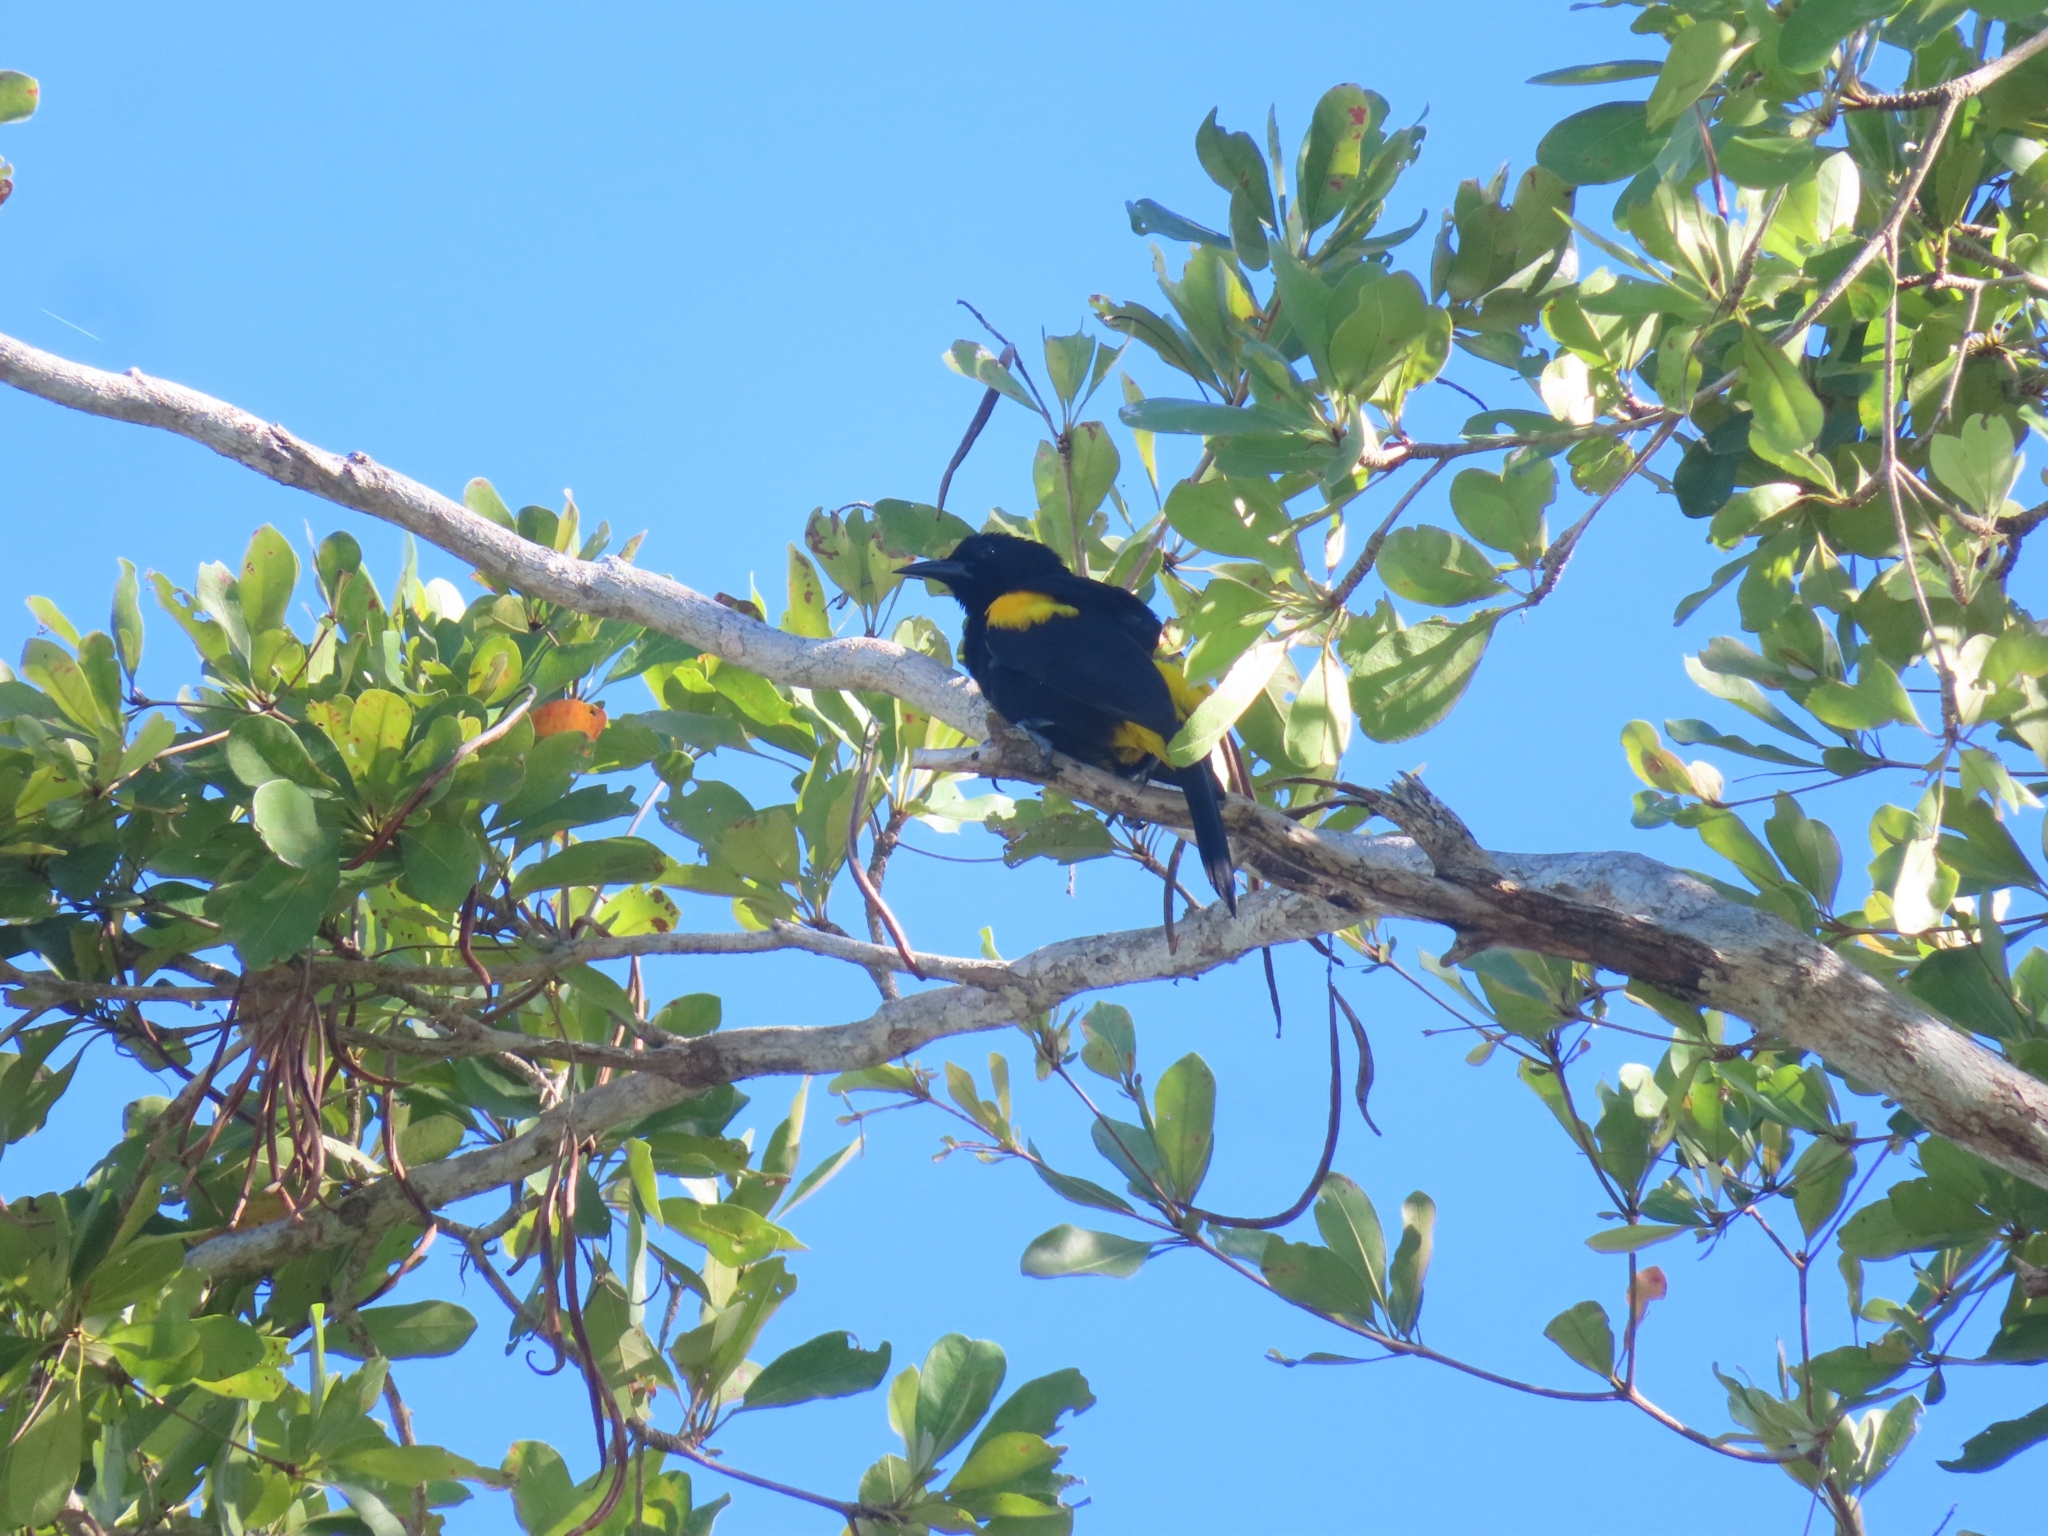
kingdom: Animalia
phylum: Chordata
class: Aves
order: Passeriformes
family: Icteridae
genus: Icterus
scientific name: Icterus portoricensis
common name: Puerto rican oriole
